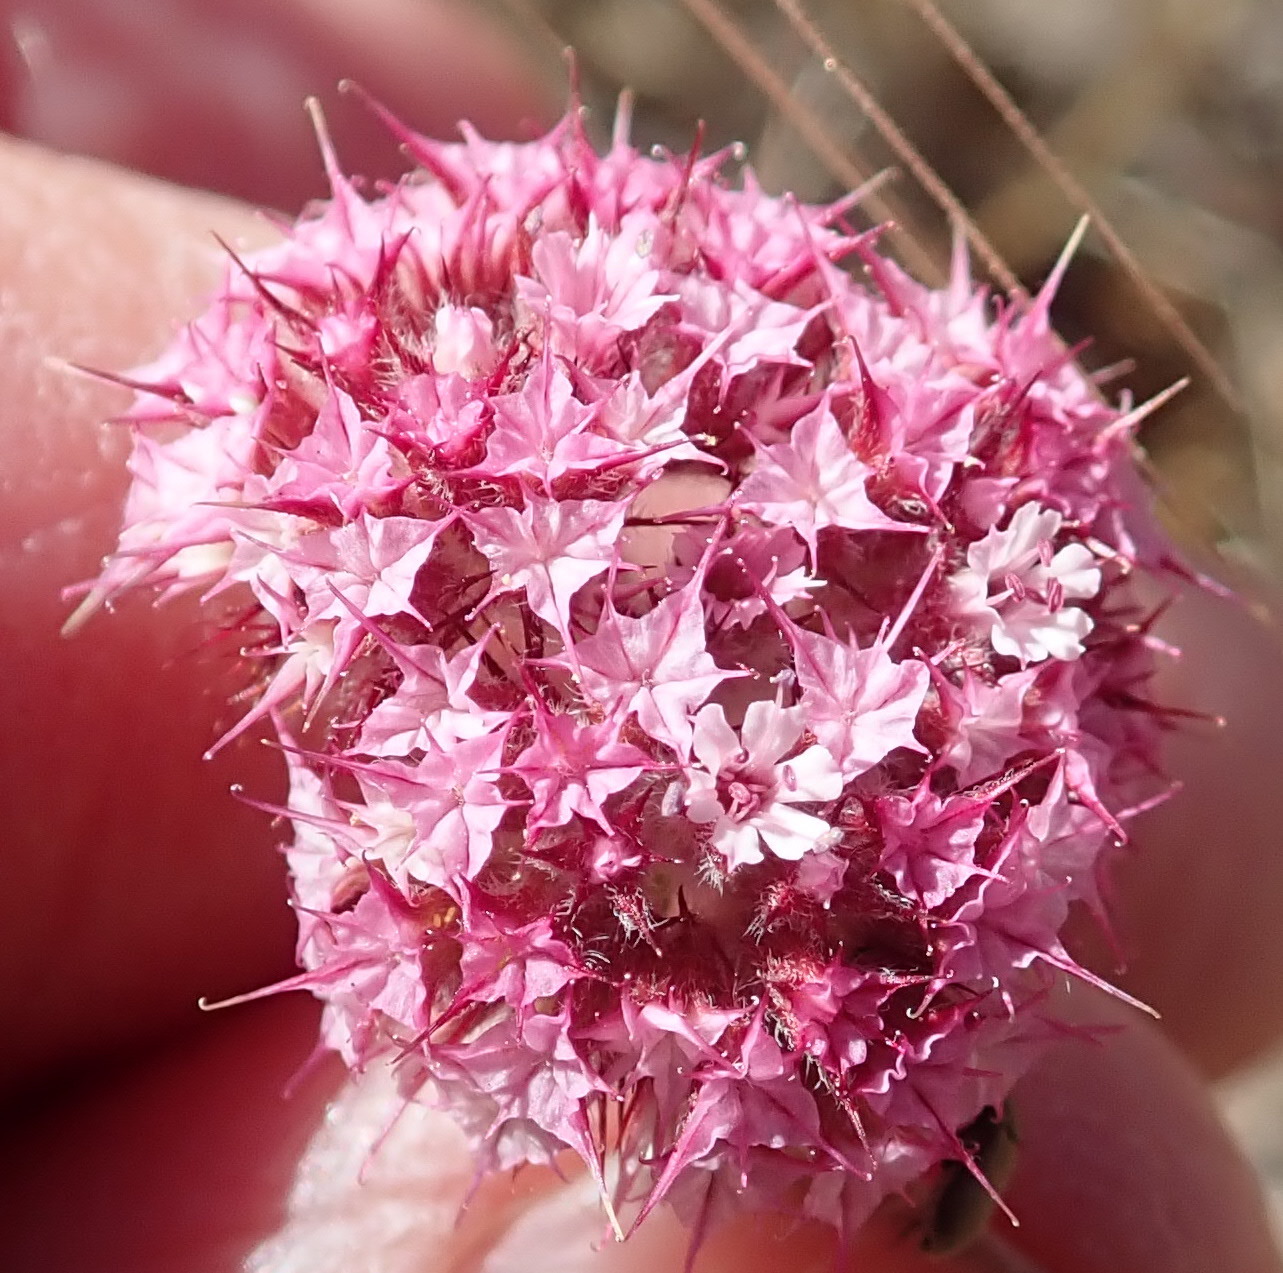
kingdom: Plantae
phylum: Tracheophyta
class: Magnoliopsida
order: Caryophyllales
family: Polygonaceae
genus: Chorizanthe
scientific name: Chorizanthe douglasii
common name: Douglas's spineflower
